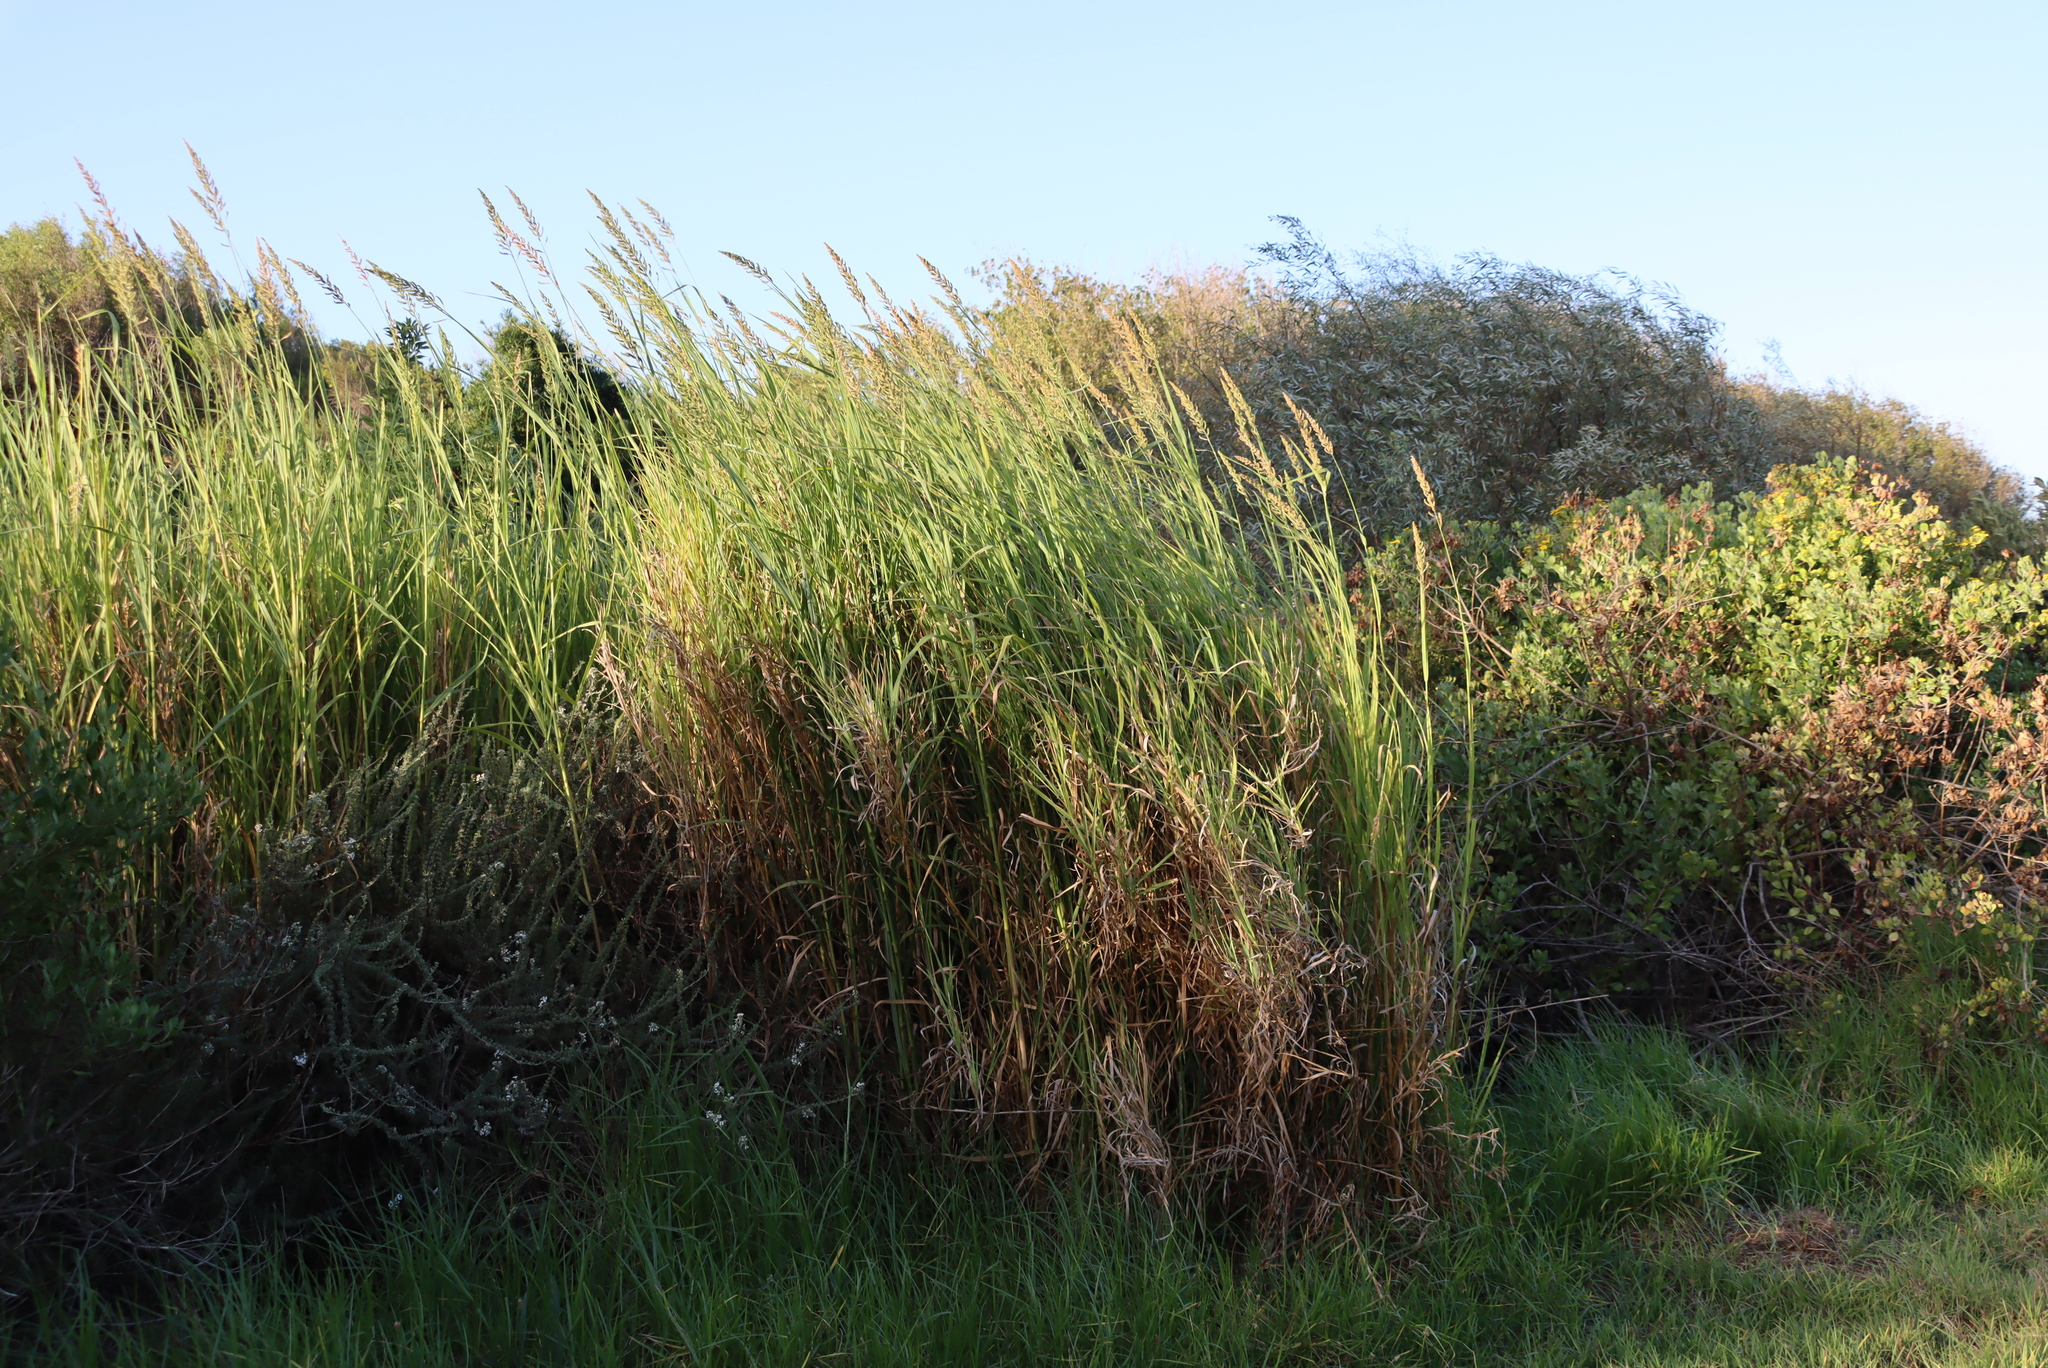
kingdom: Plantae
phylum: Tracheophyta
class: Liliopsida
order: Poales
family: Poaceae
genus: Echinochloa
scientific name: Echinochloa pyramidalis
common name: Antelope grass
